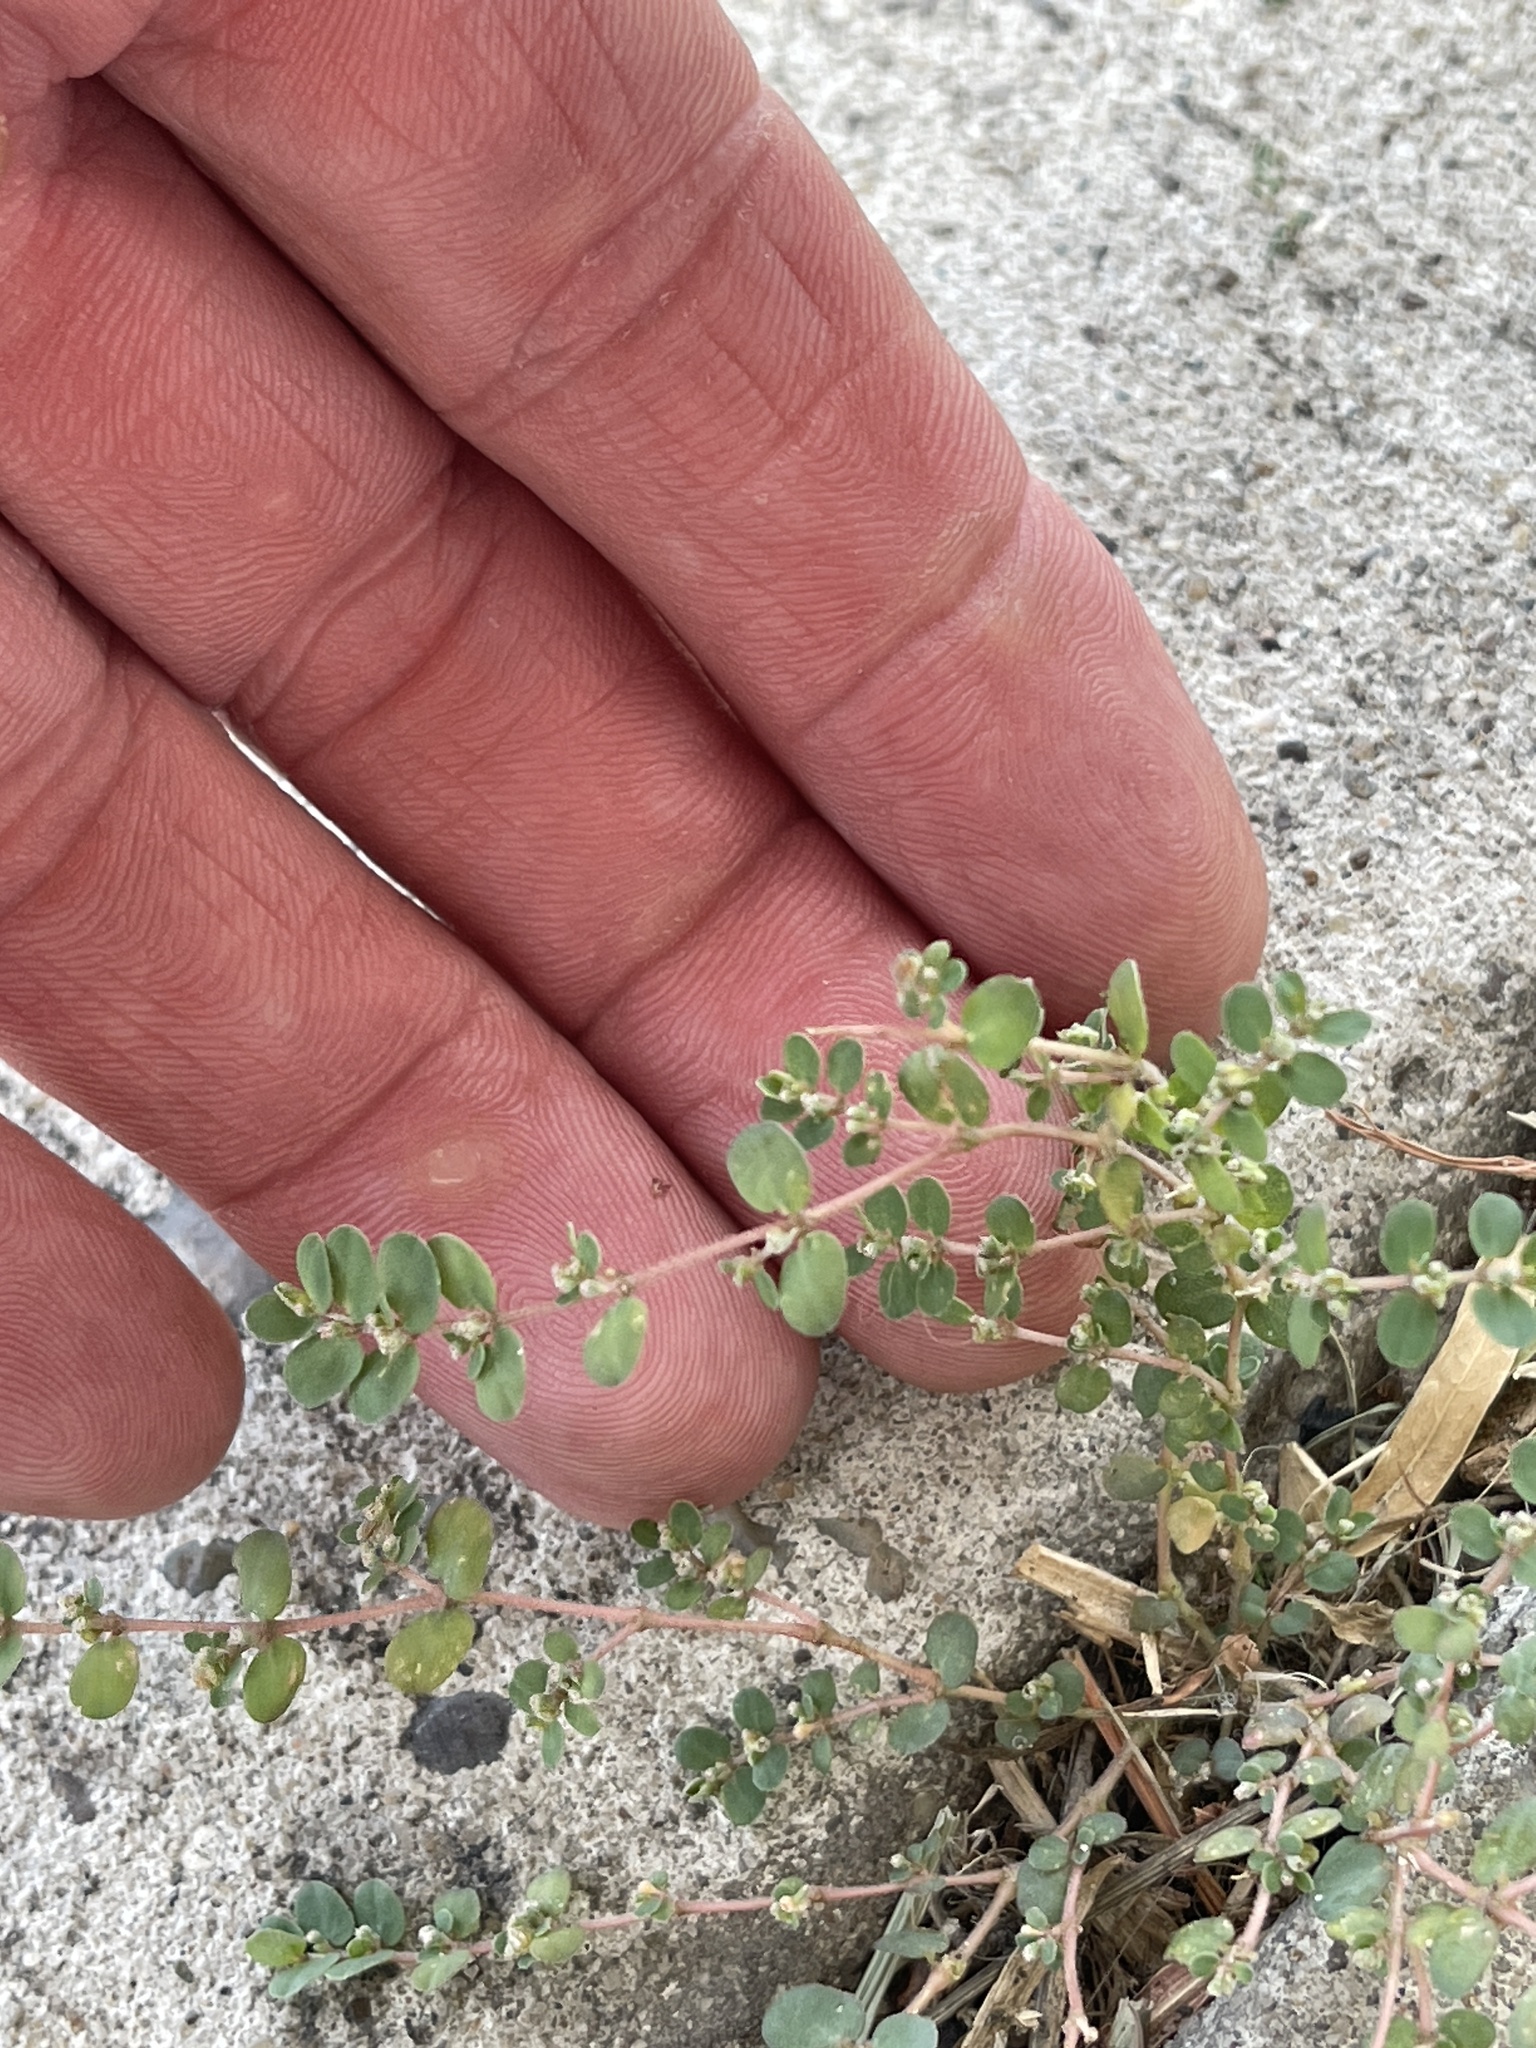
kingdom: Plantae
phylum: Tracheophyta
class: Magnoliopsida
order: Malpighiales
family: Euphorbiaceae
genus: Euphorbia
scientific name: Euphorbia prostrata
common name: Prostrate sandmat
